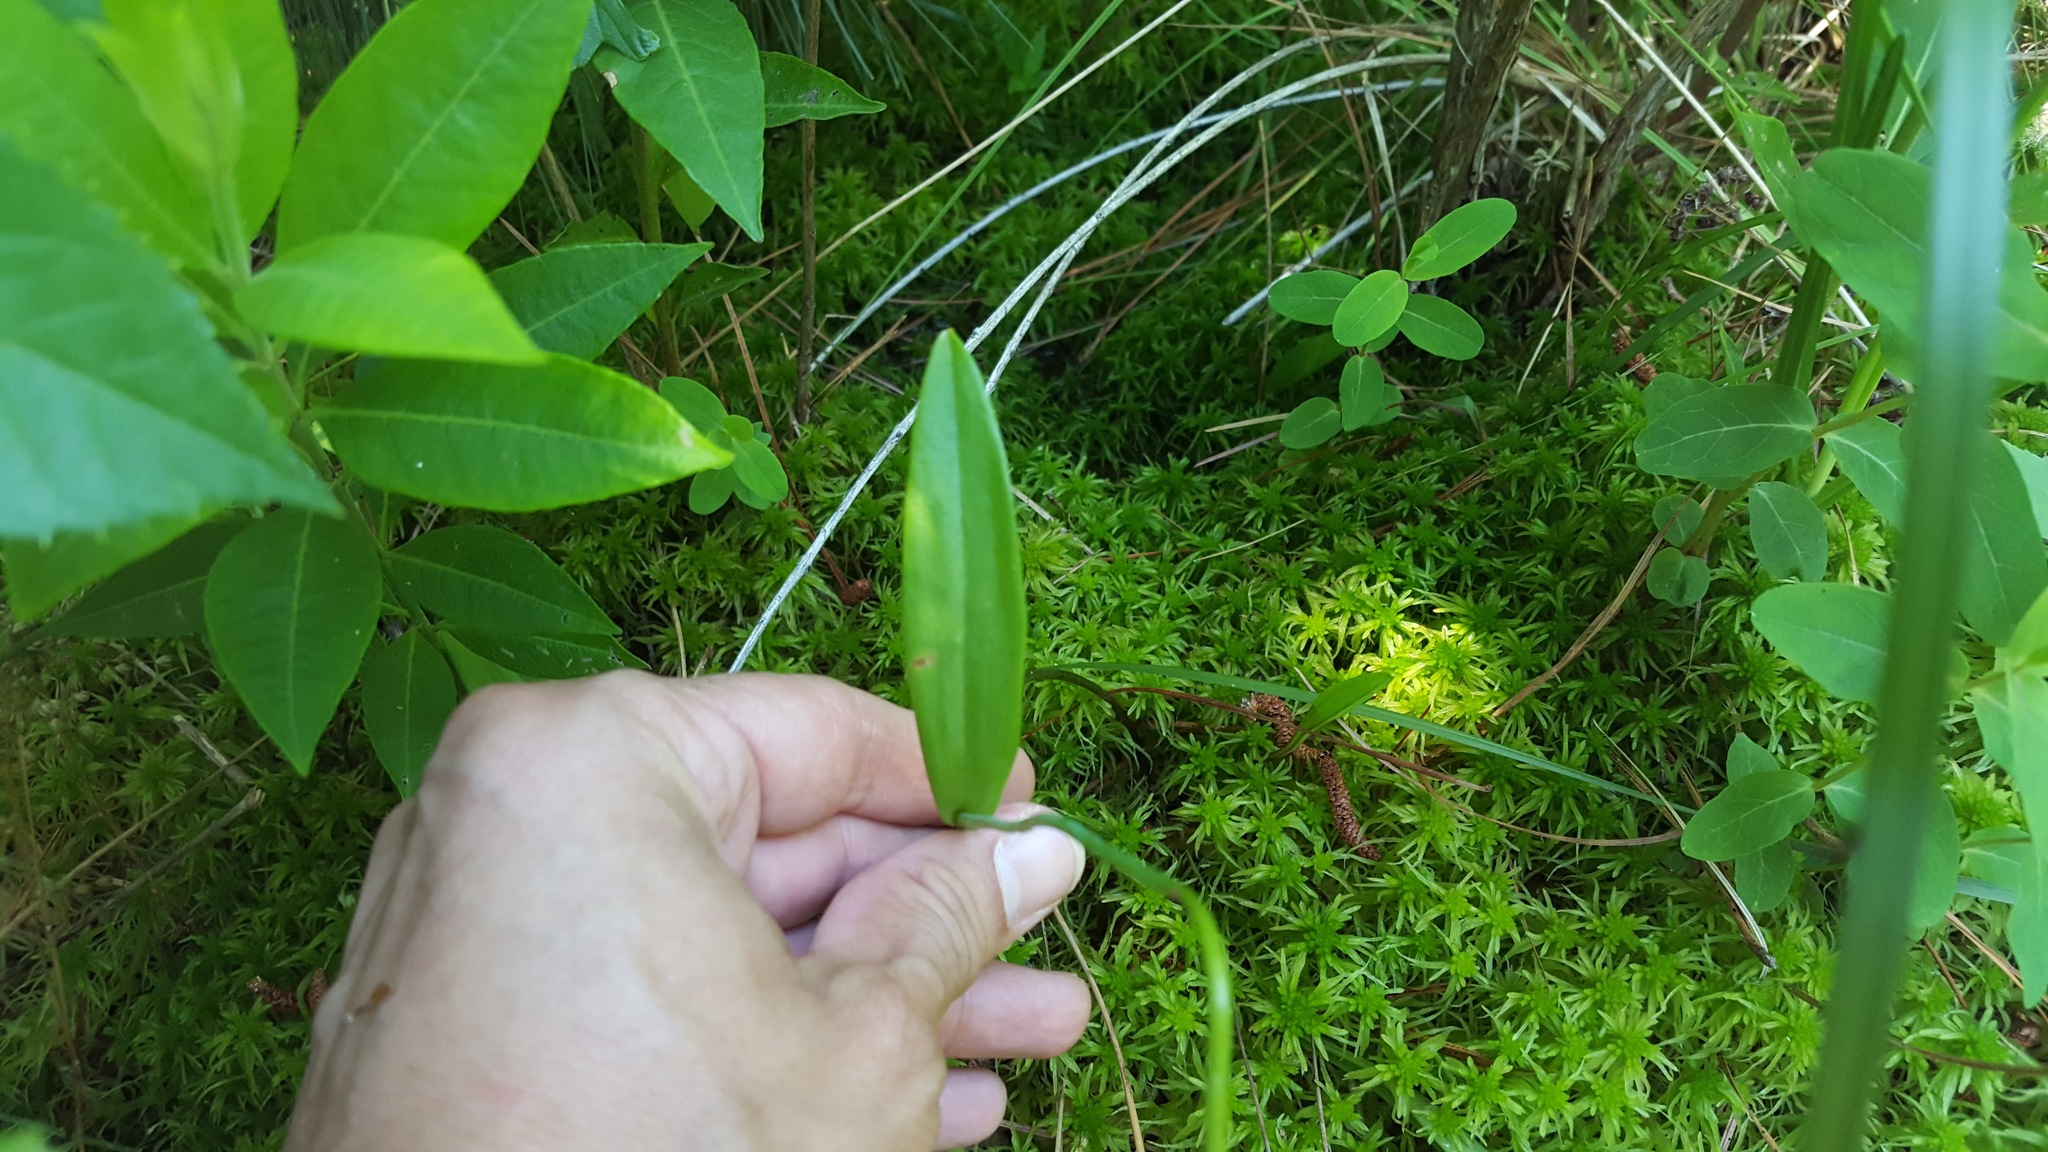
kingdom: Plantae
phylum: Tracheophyta
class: Liliopsida
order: Asparagales
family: Orchidaceae
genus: Pogonia
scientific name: Pogonia ophioglossoides
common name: Rose pogonia
